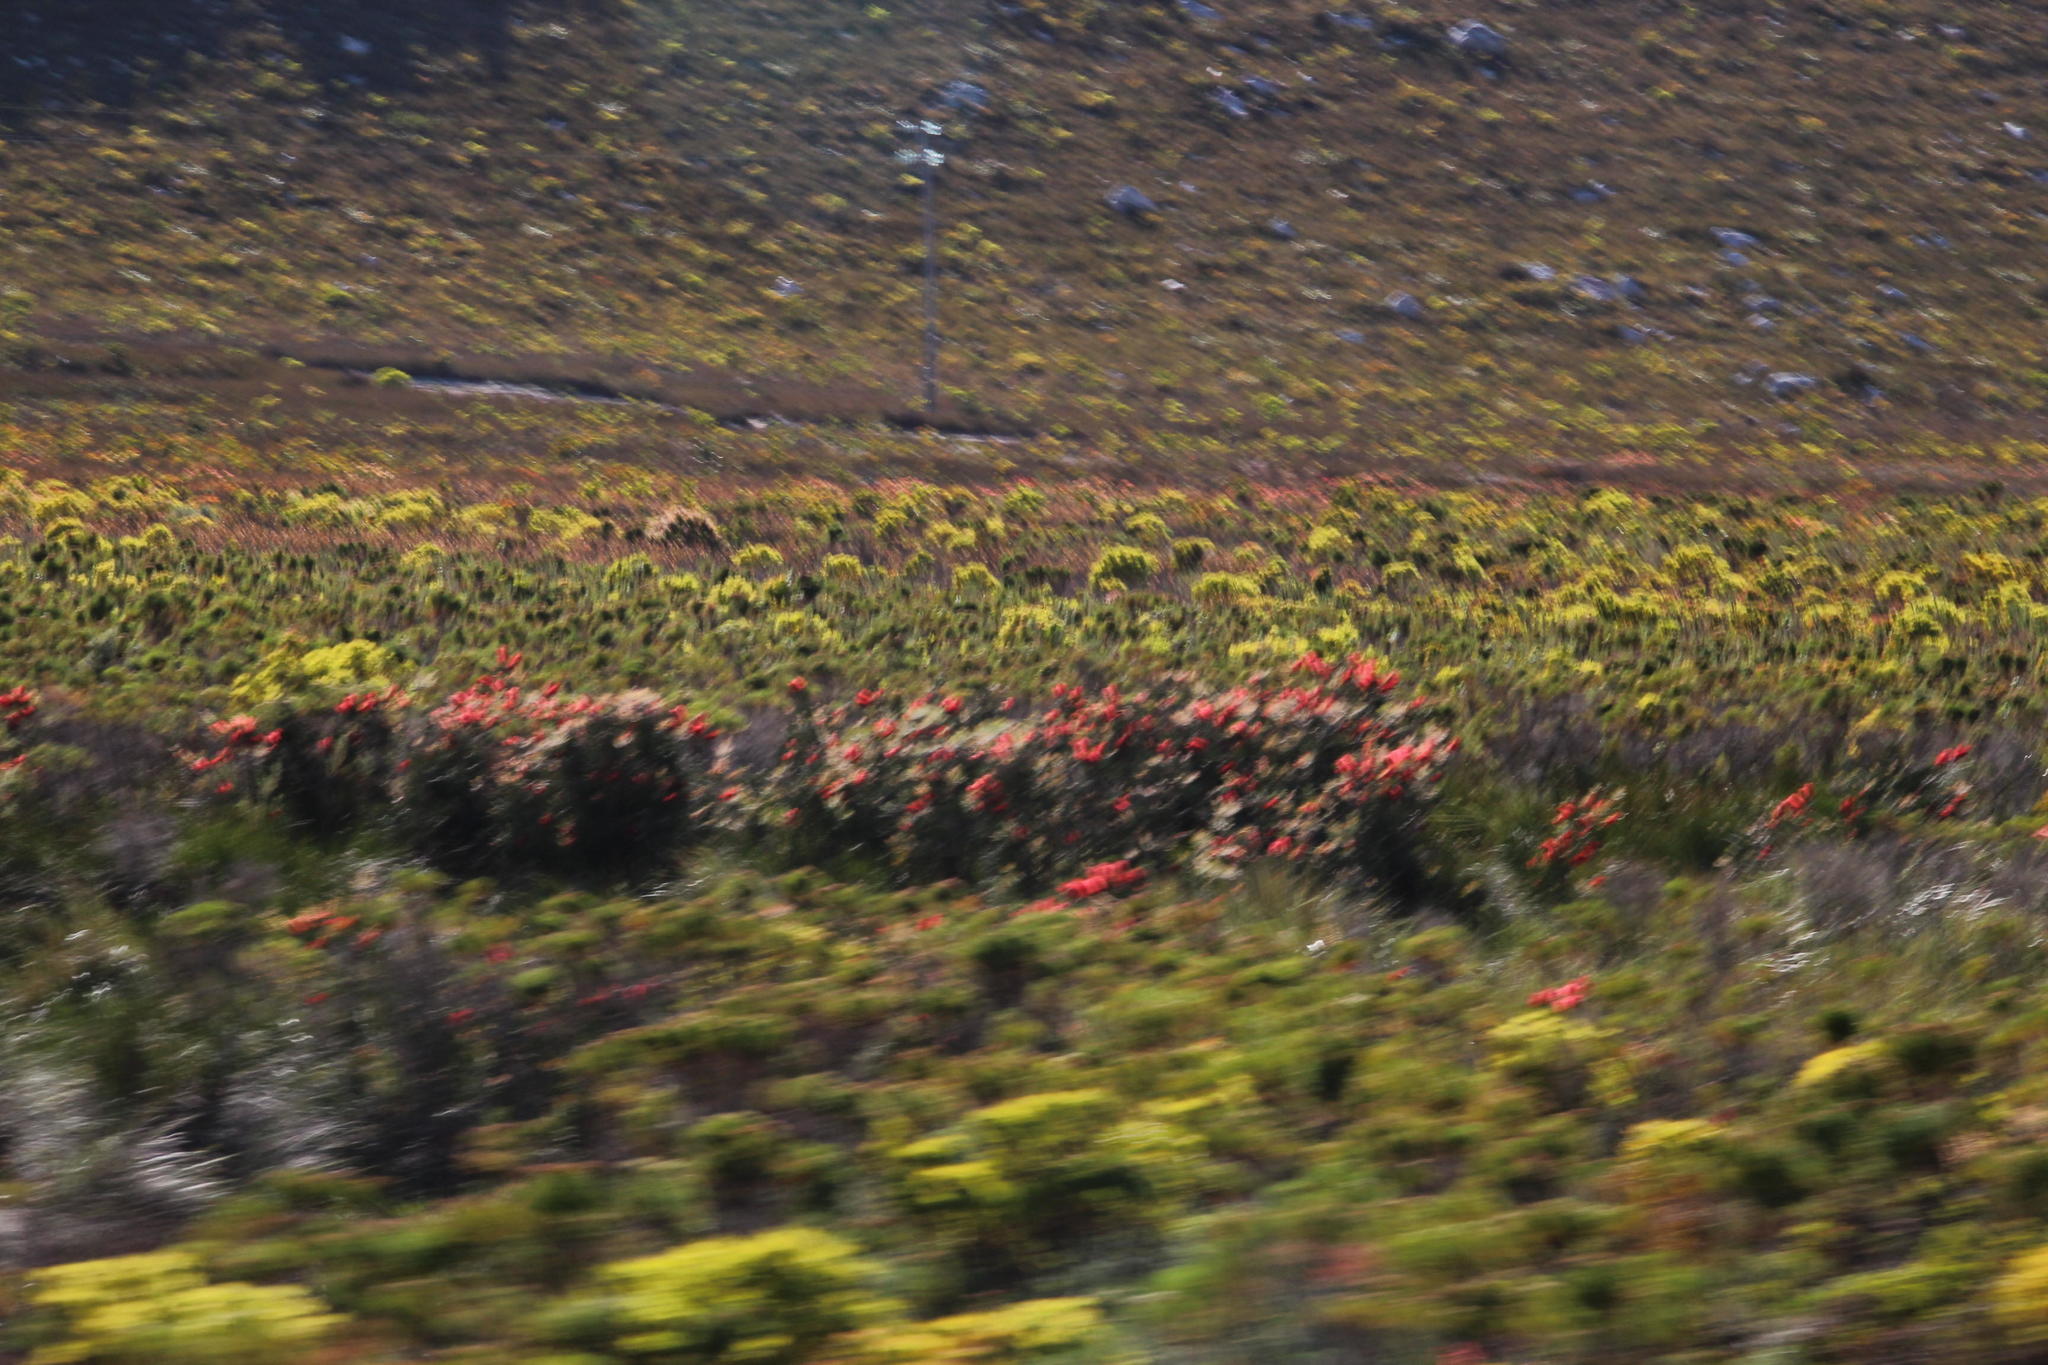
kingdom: Plantae
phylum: Tracheophyta
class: Magnoliopsida
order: Myrtales
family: Myrtaceae
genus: Callistemon
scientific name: Callistemon linearis
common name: Narrow-leaf bottlebrush
